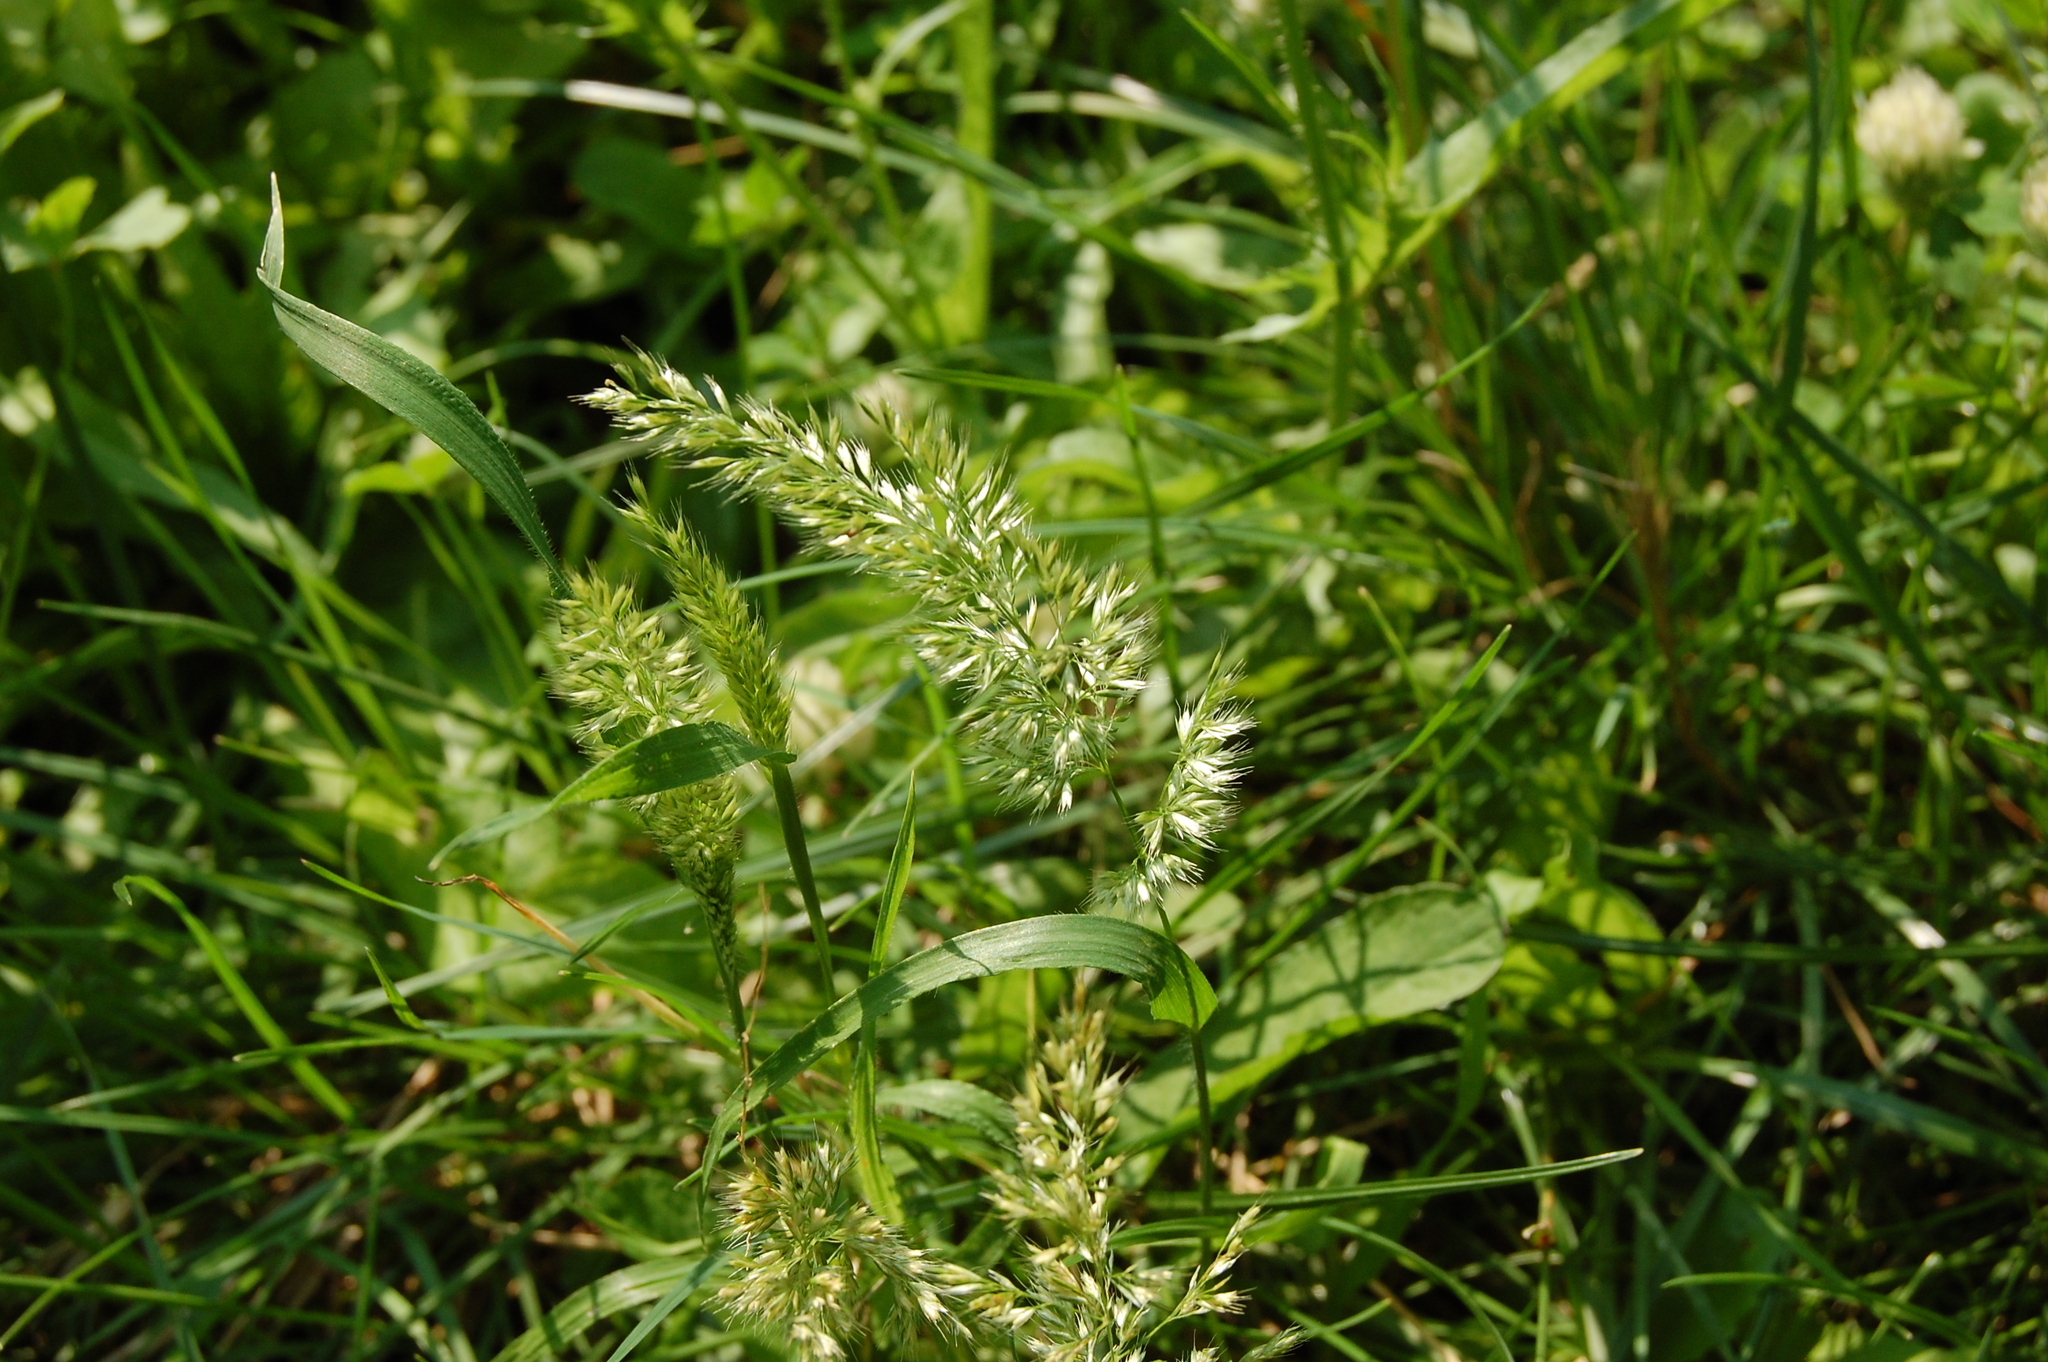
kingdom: Plantae
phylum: Tracheophyta
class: Liliopsida
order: Poales
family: Poaceae
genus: Trisetaria
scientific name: Trisetaria panicea
